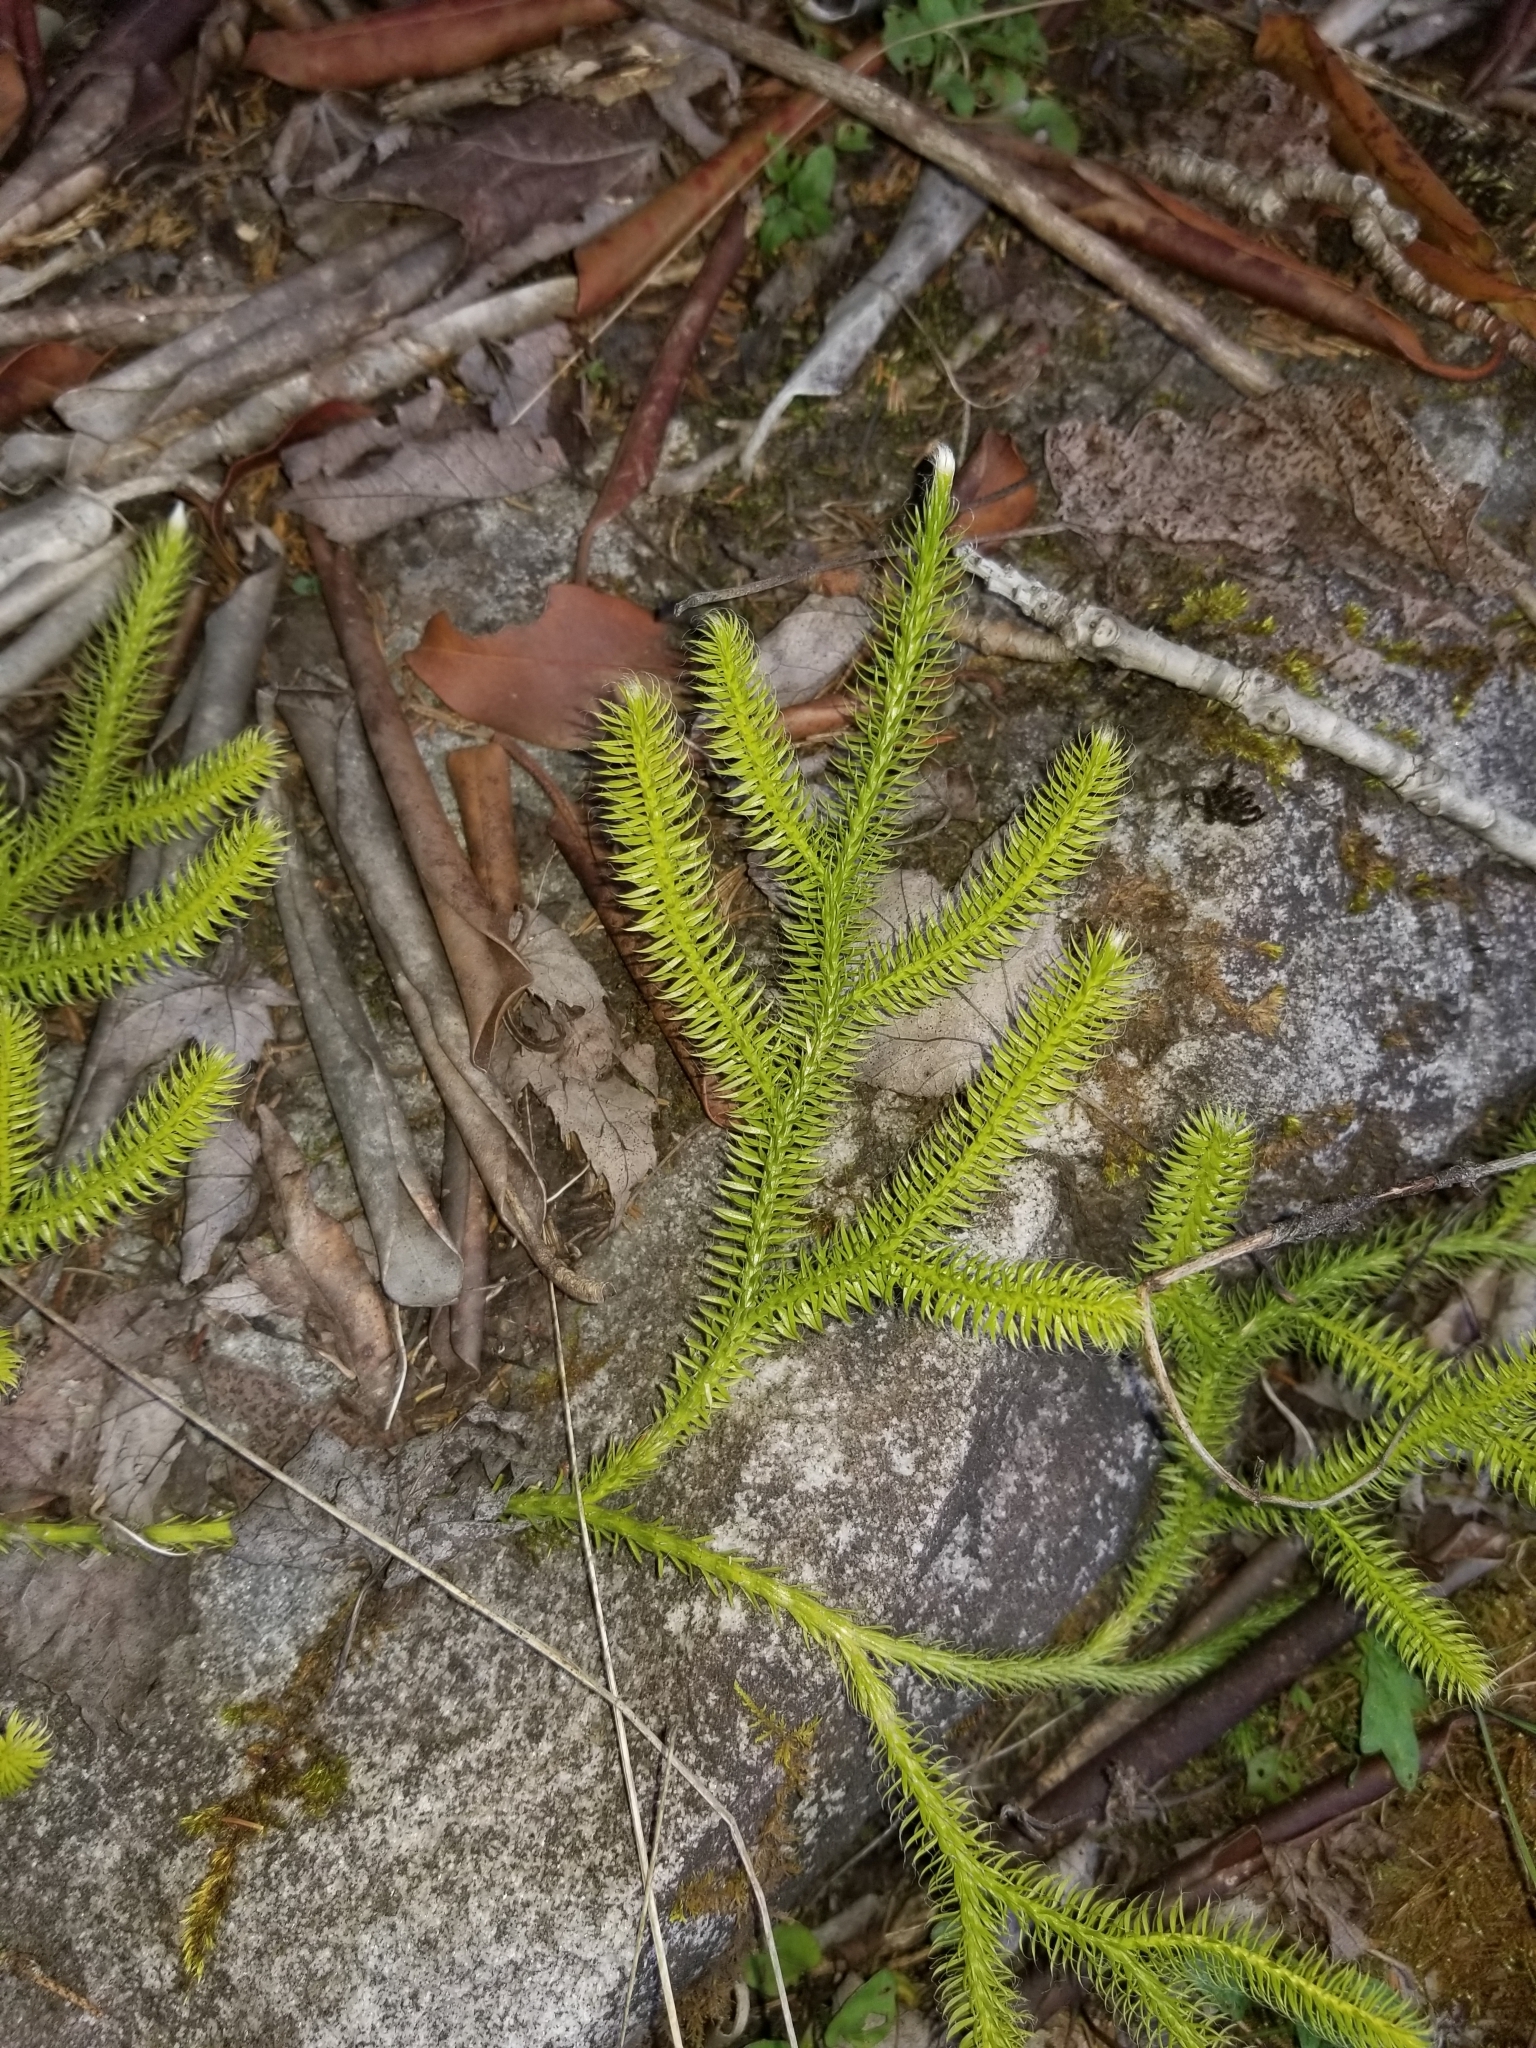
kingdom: Plantae
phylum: Tracheophyta
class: Lycopodiopsida
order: Lycopodiales
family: Lycopodiaceae
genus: Lycopodium
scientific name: Lycopodium clavatum
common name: Stag's-horn clubmoss
